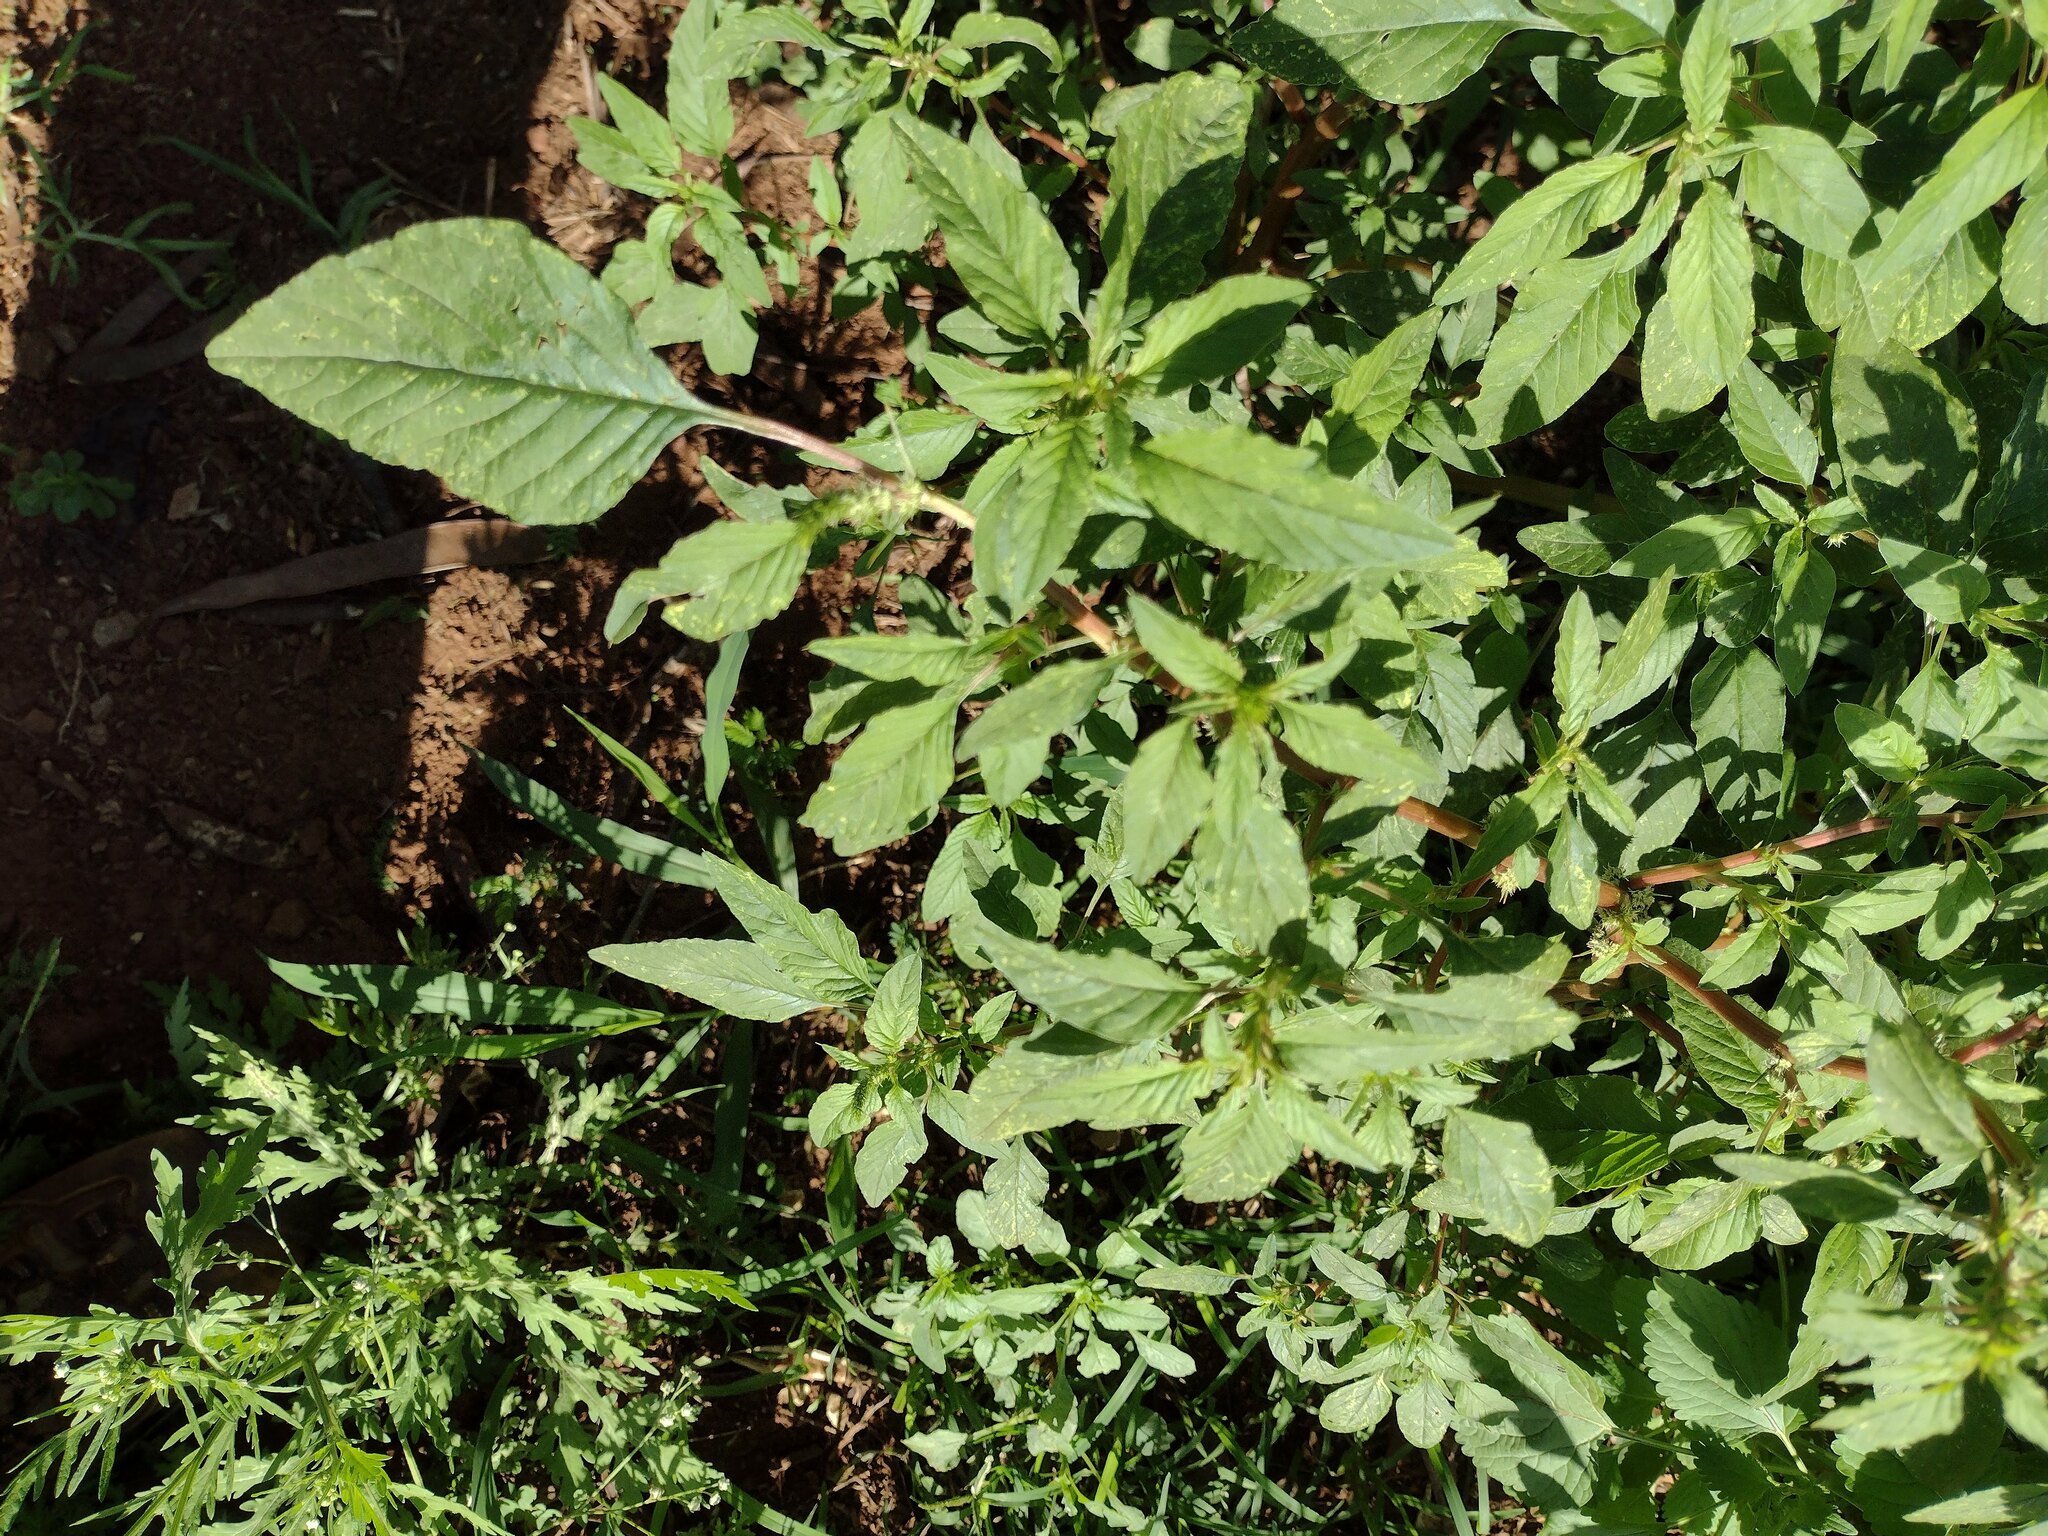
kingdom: Plantae
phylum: Tracheophyta
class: Magnoliopsida
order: Caryophyllales
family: Amaranthaceae
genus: Amaranthus
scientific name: Amaranthus spinosus
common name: Spiny amaranth
